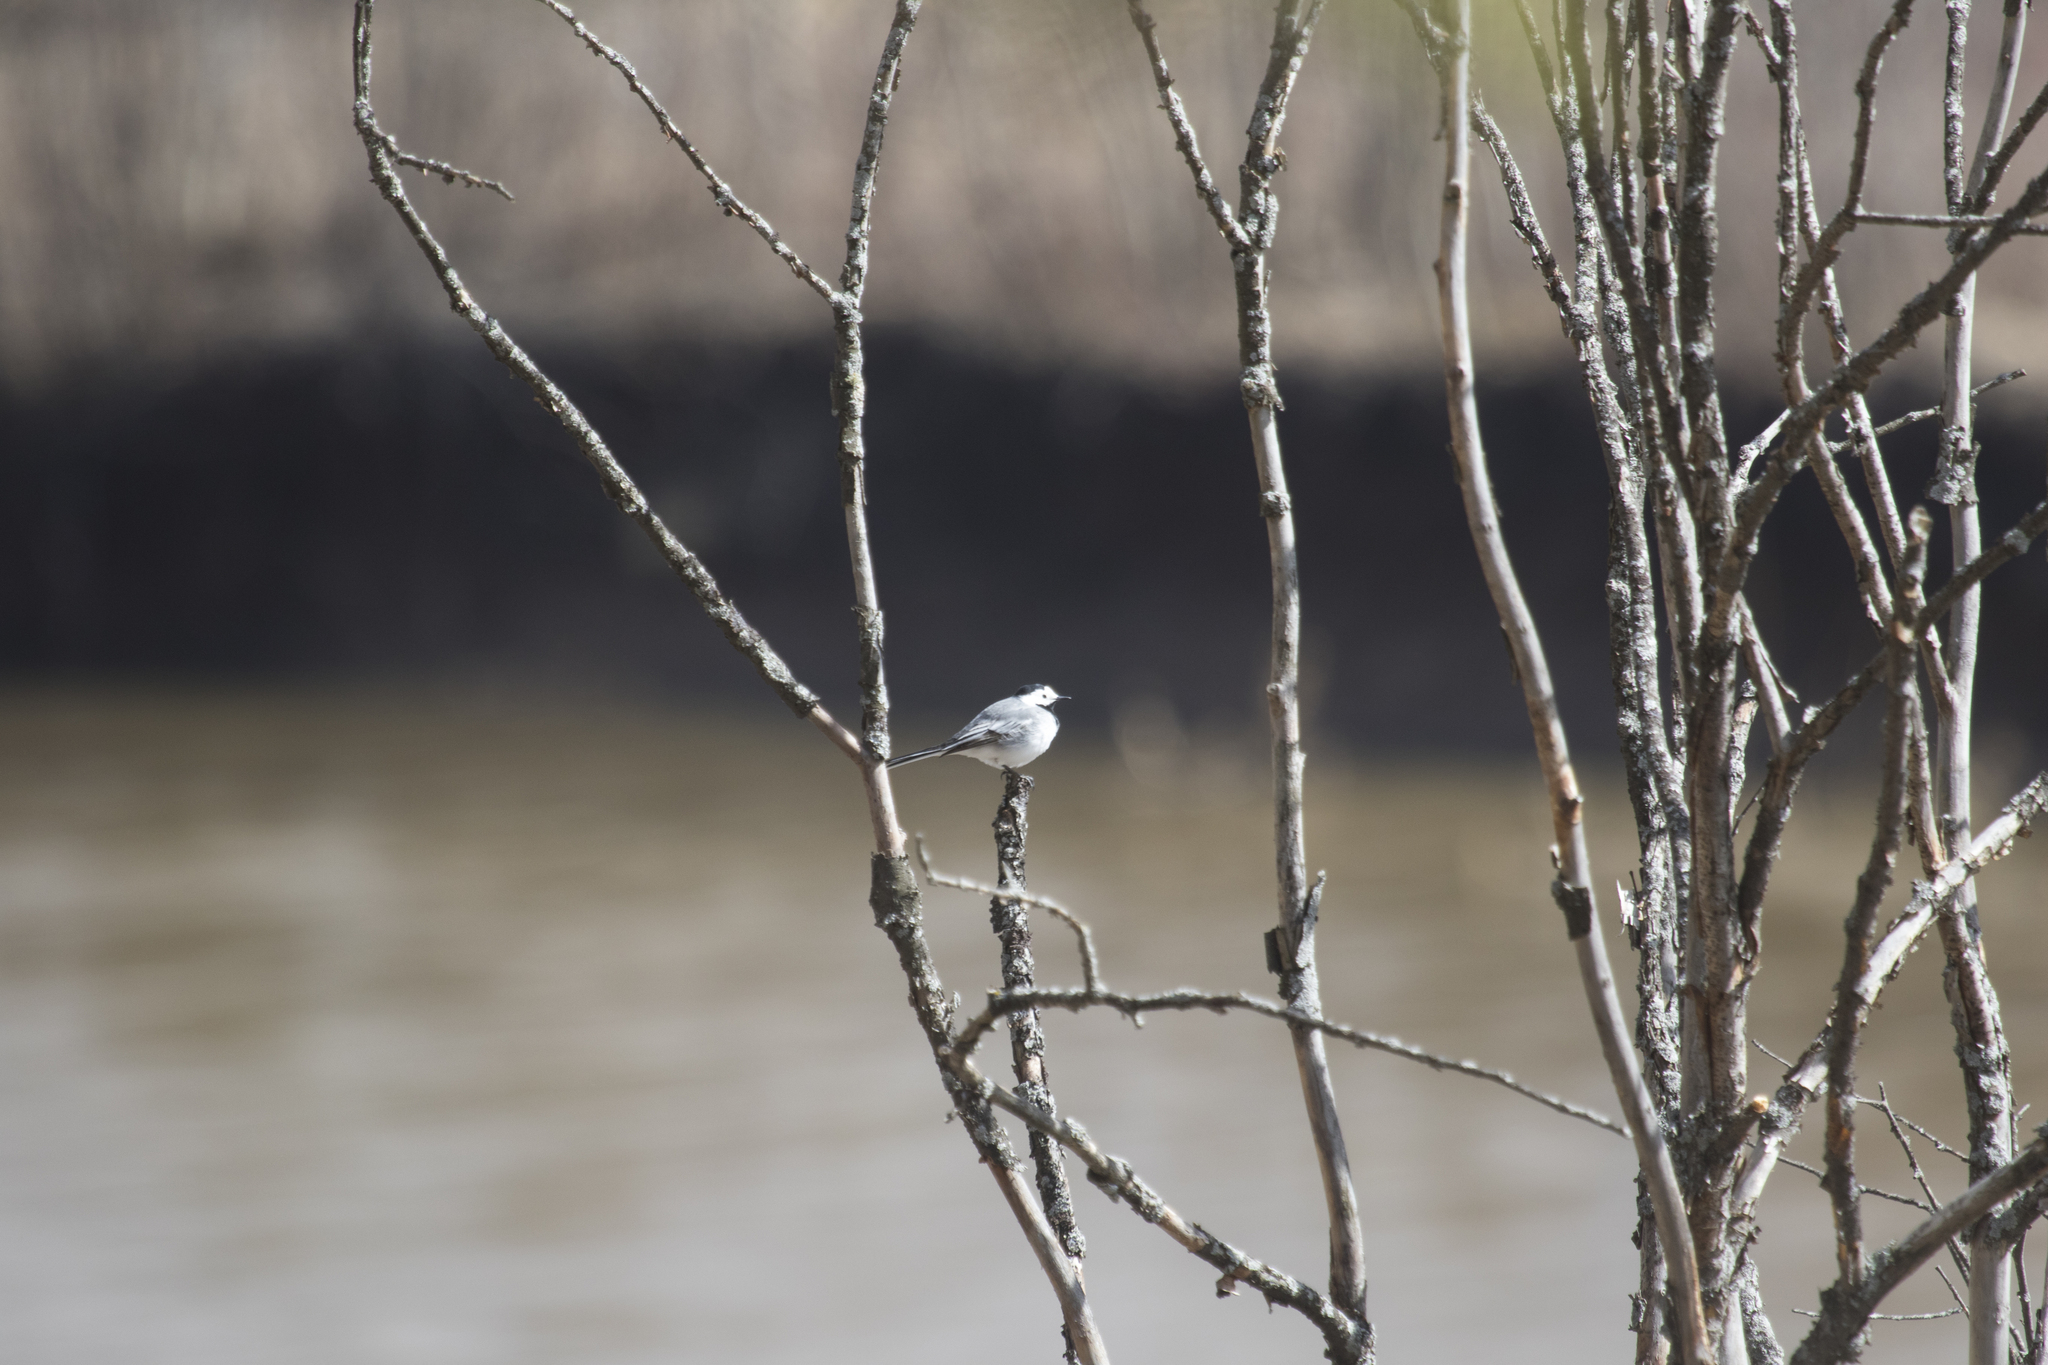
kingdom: Animalia
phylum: Chordata
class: Aves
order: Passeriformes
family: Motacillidae
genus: Motacilla
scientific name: Motacilla alba
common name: White wagtail
